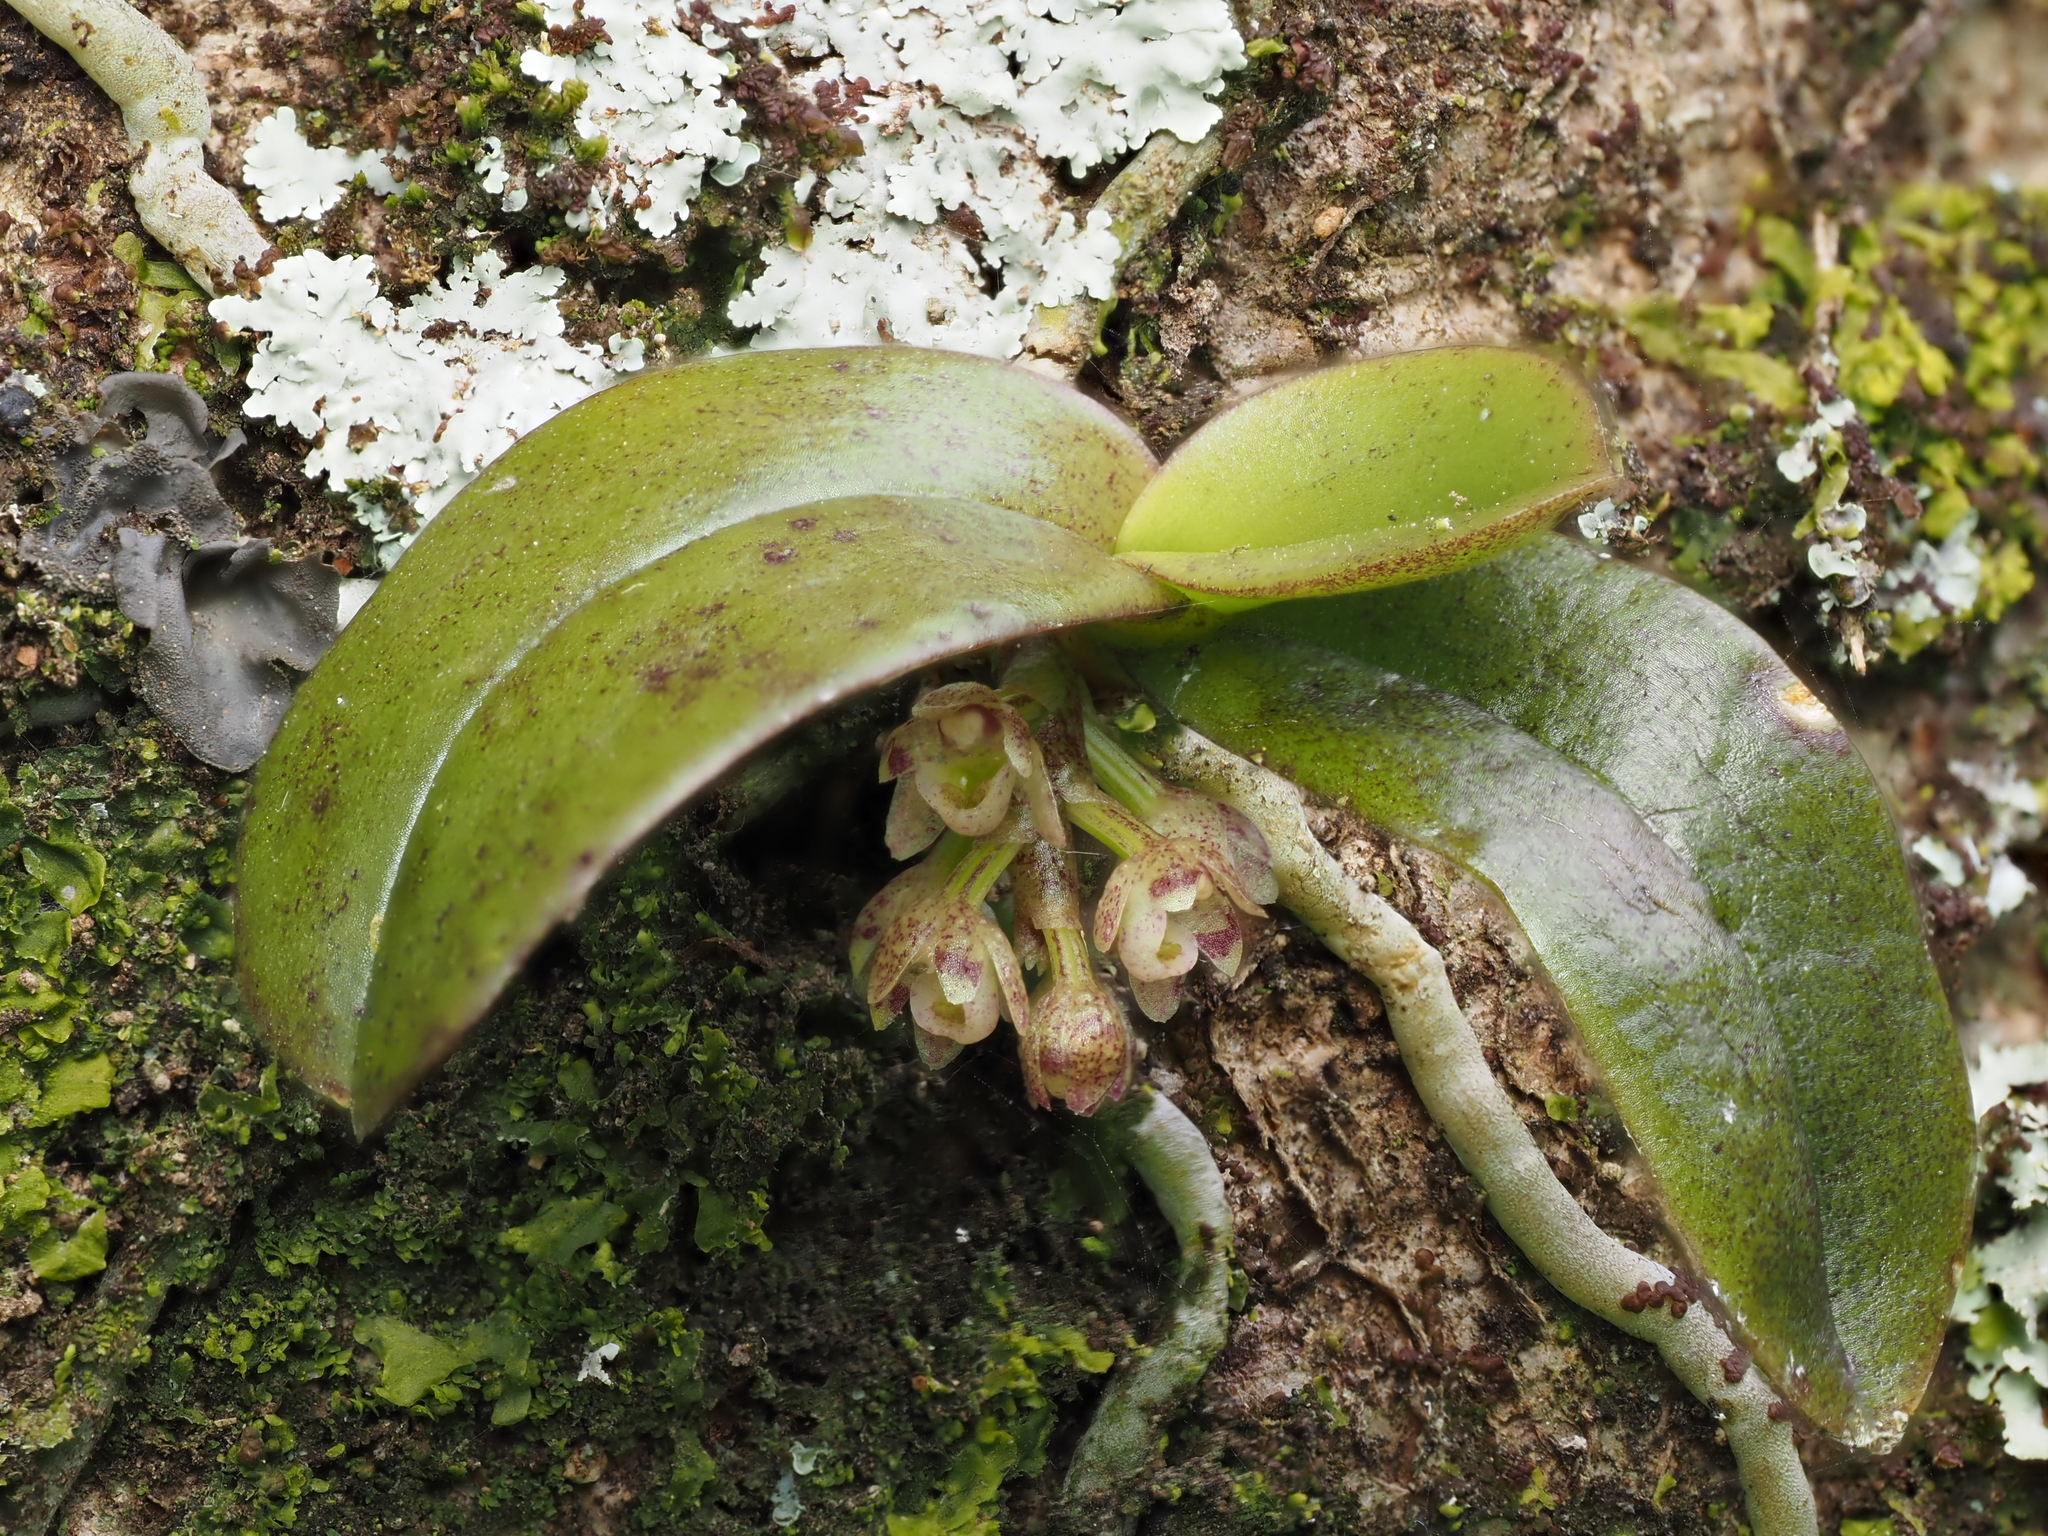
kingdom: Plantae
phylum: Tracheophyta
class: Liliopsida
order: Asparagales
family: Orchidaceae
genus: Drymoanthus
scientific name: Drymoanthus adversus
